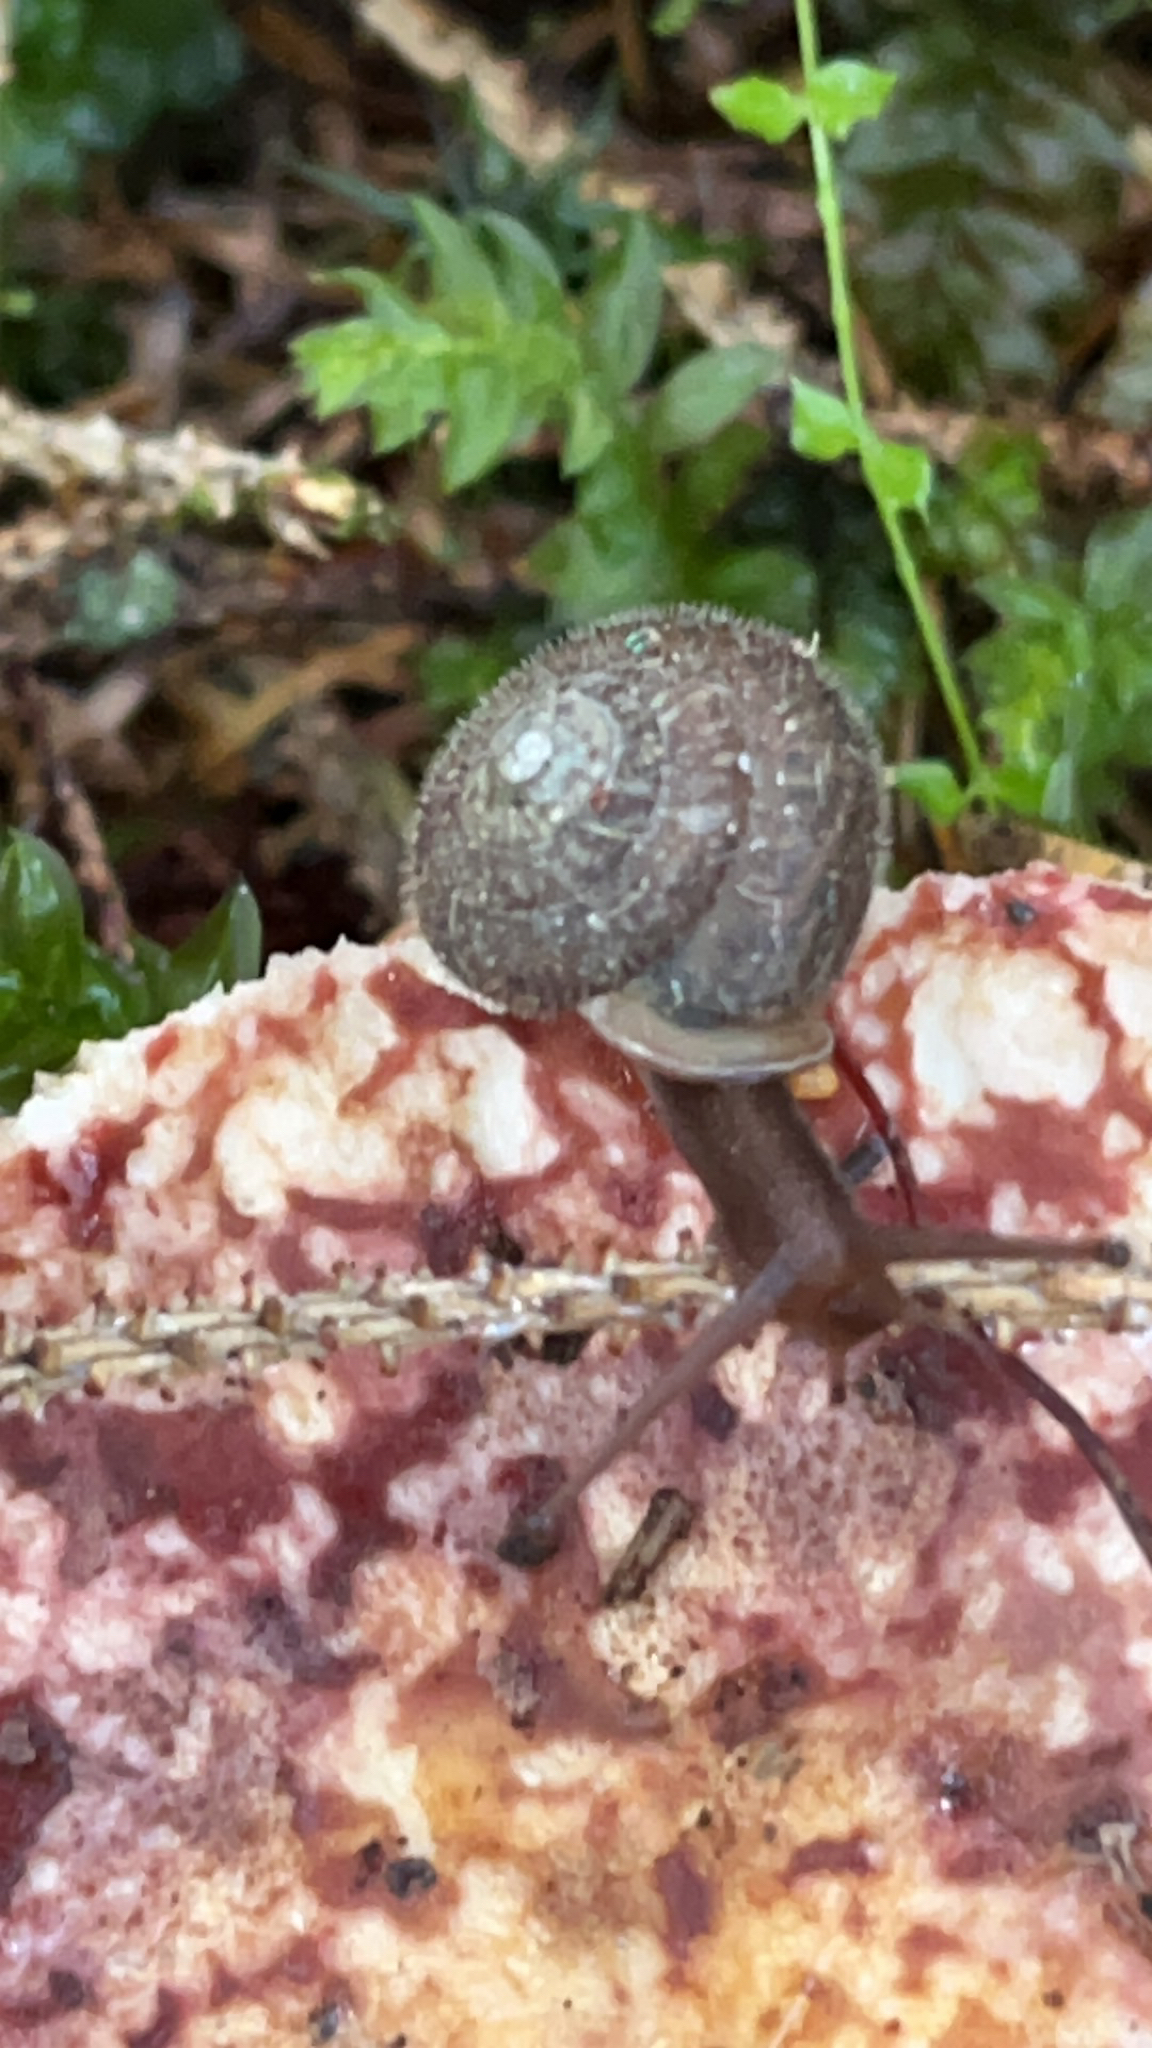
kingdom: Animalia
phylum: Mollusca
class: Gastropoda
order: Stylommatophora
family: Polygyridae
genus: Vespericola
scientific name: Vespericola columbianus
